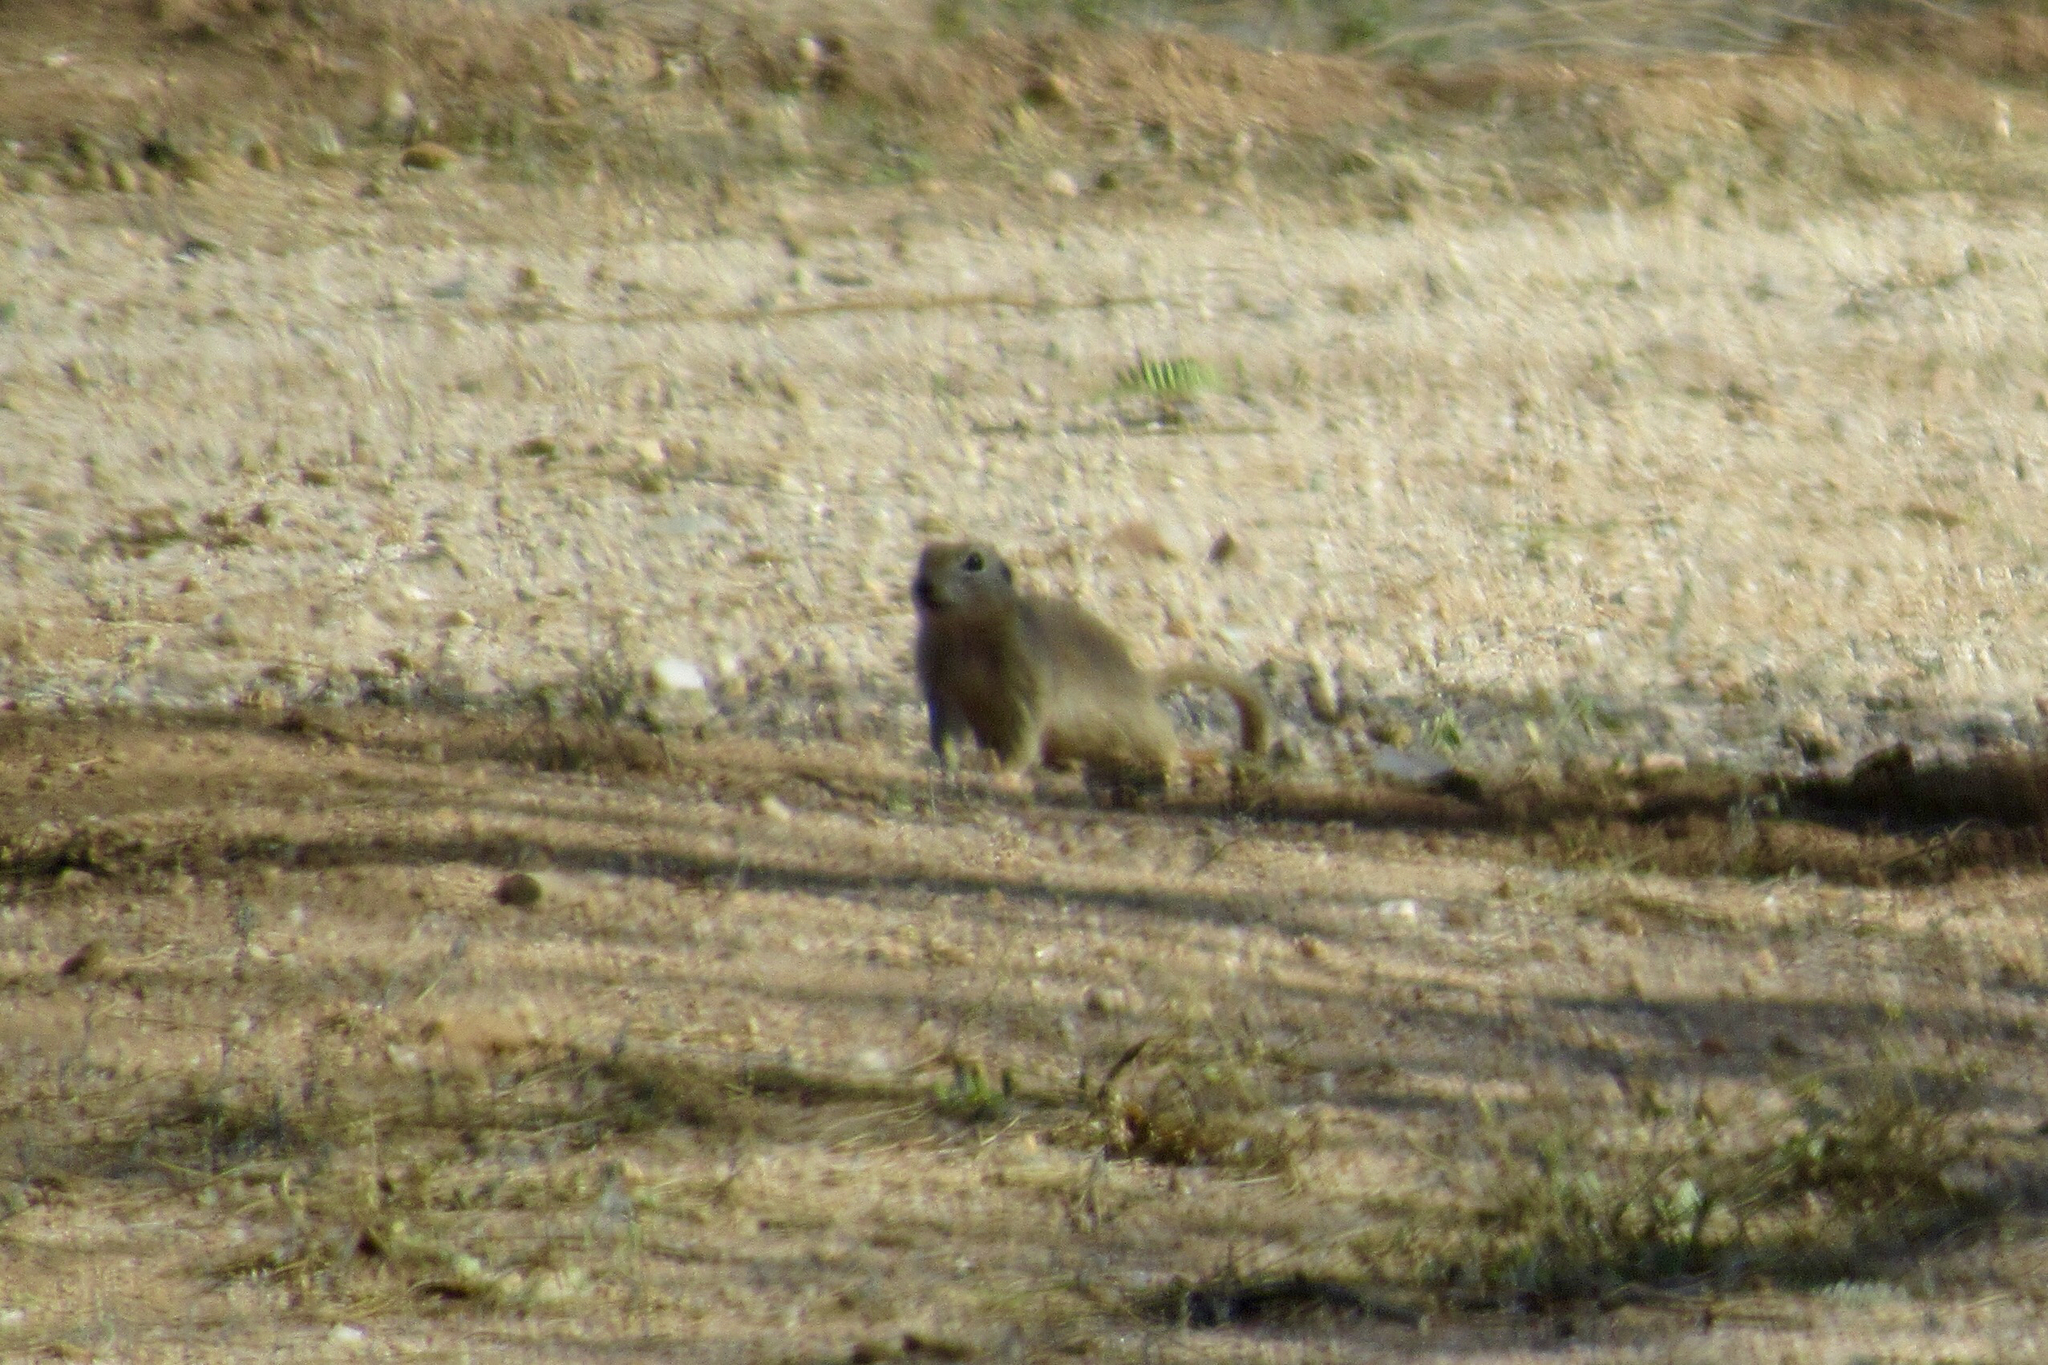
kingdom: Animalia
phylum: Chordata
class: Mammalia
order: Rodentia
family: Sciuridae
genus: Xerospermophilus
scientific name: Xerospermophilus tereticaudus
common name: Round-tailed ground squirrel
